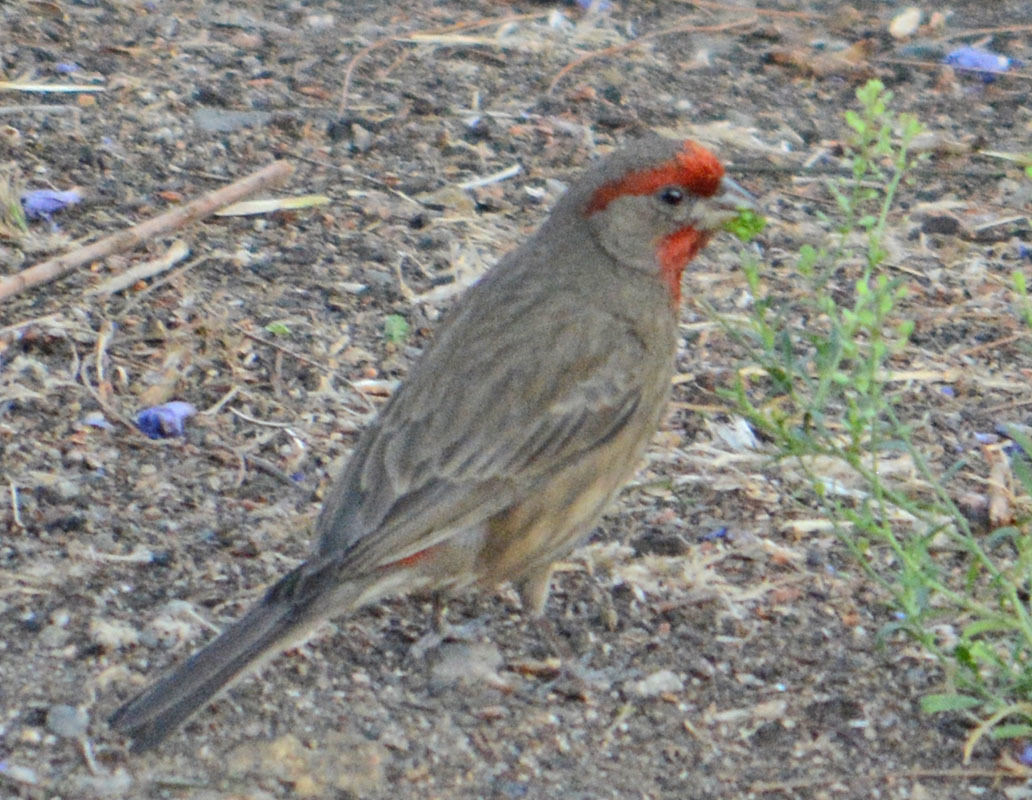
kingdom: Animalia
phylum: Chordata
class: Aves
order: Passeriformes
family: Fringillidae
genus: Haemorhous
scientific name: Haemorhous mexicanus
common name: House finch
